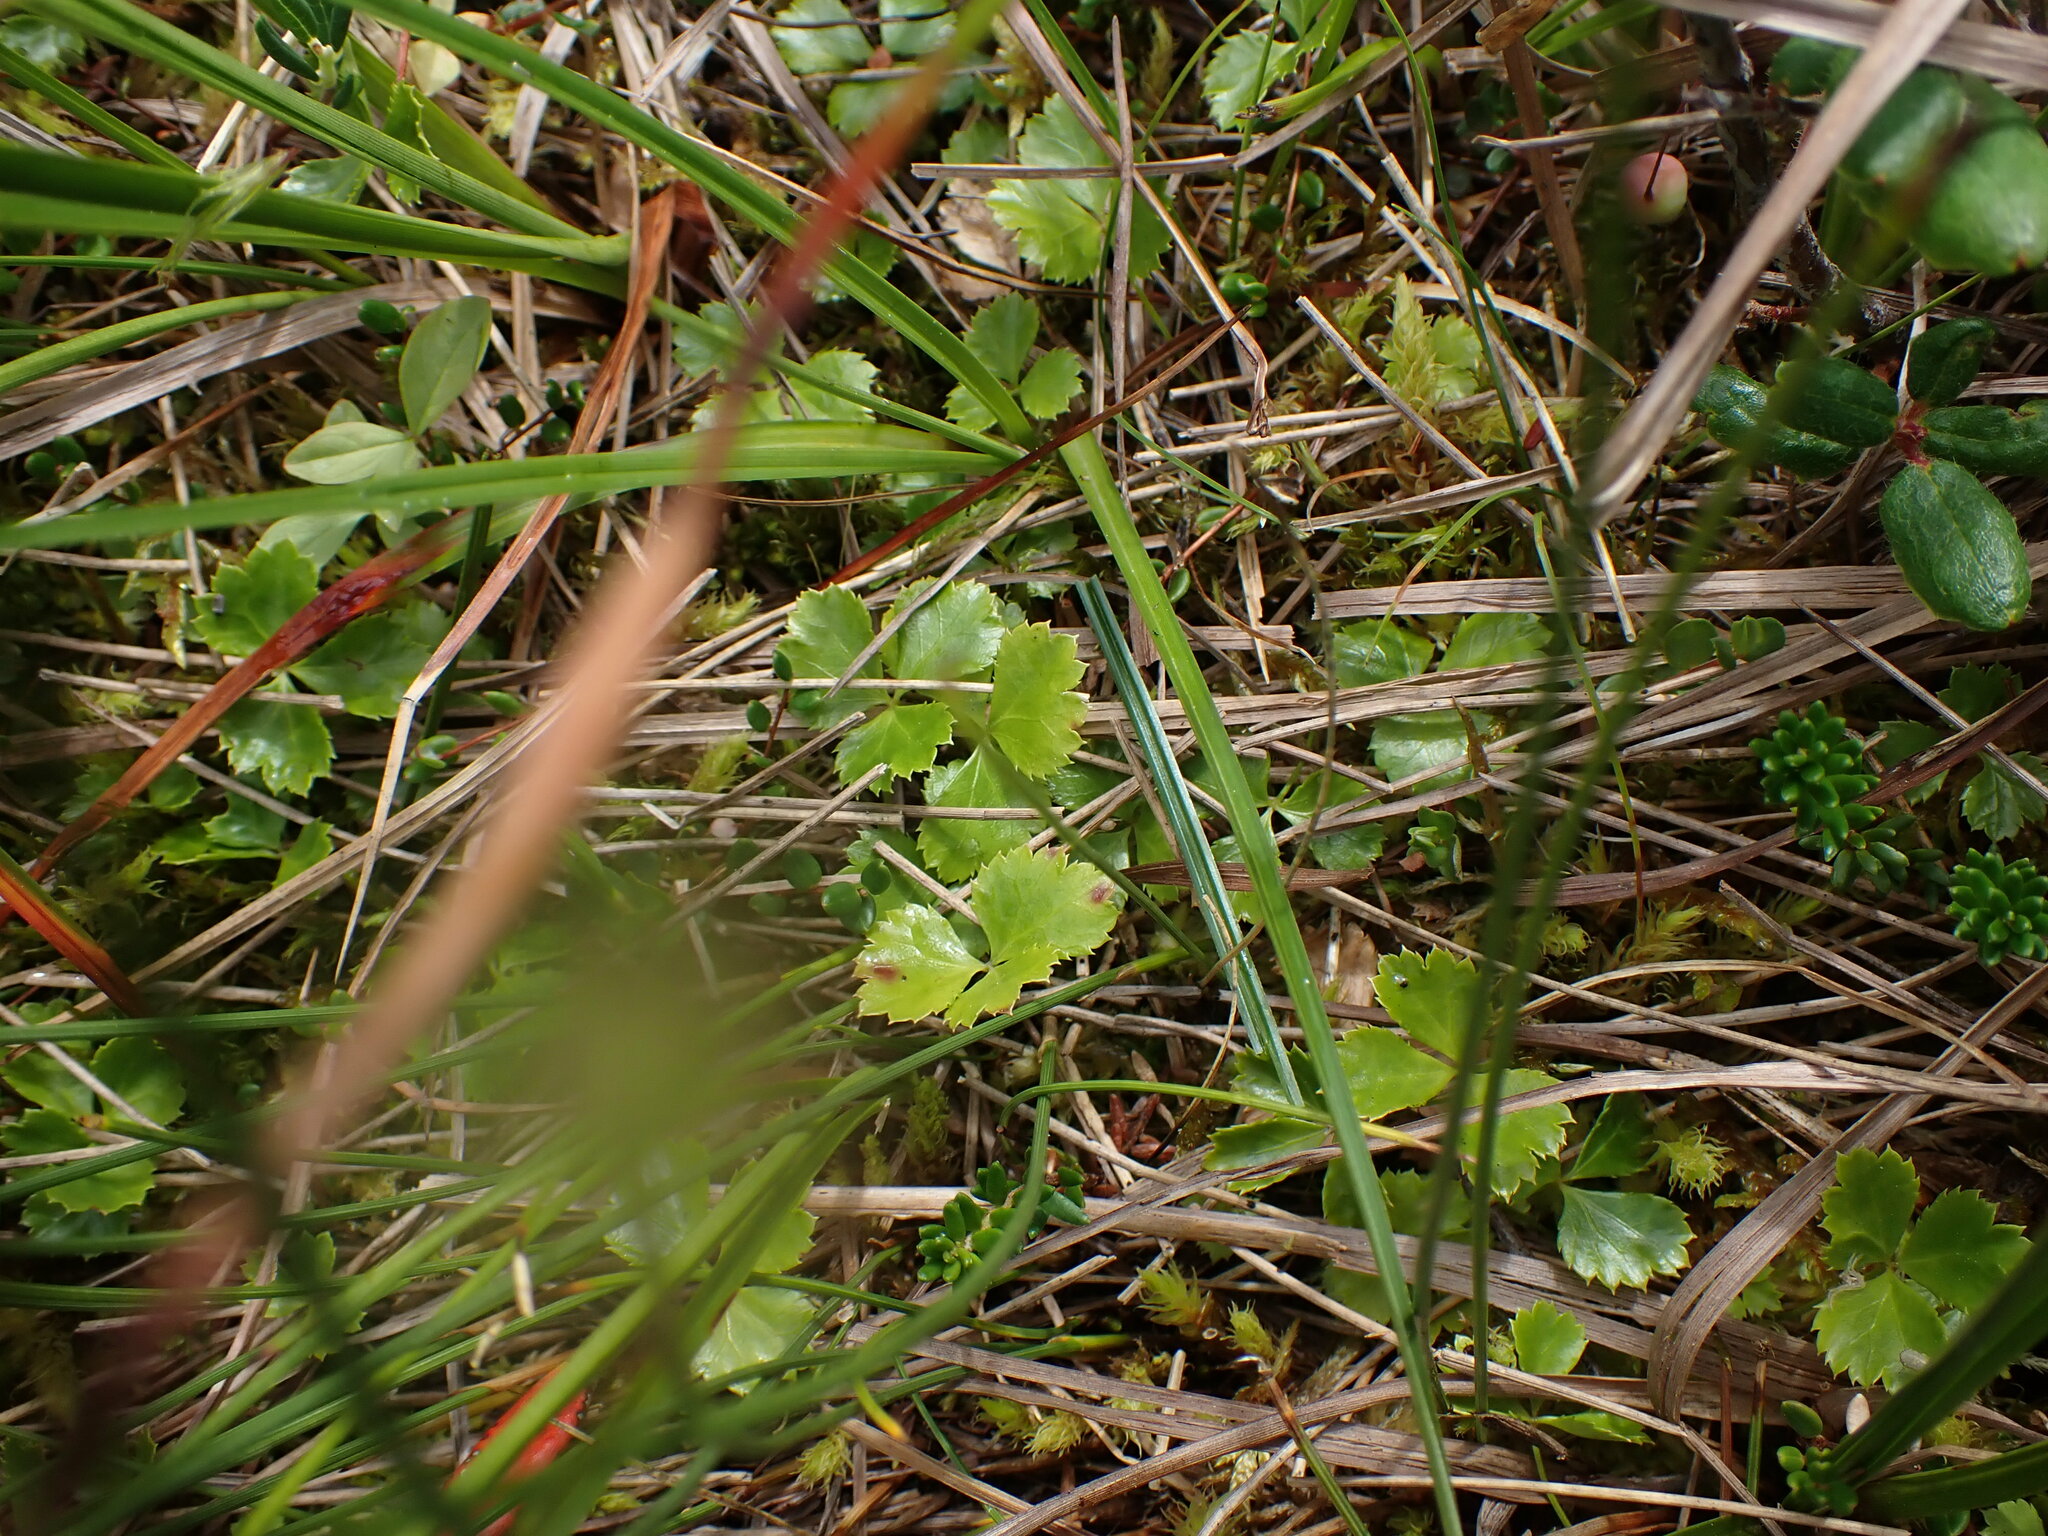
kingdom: Plantae
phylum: Tracheophyta
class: Magnoliopsida
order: Ranunculales
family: Ranunculaceae
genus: Coptis
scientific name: Coptis trifolia
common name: Canker-root
